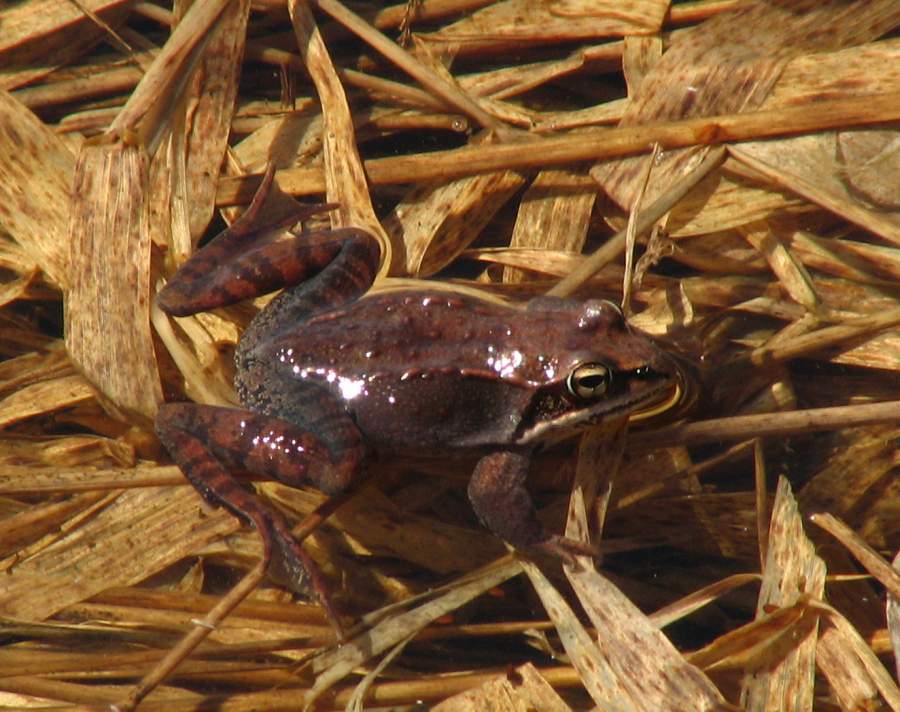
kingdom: Animalia
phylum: Chordata
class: Amphibia
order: Anura
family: Ranidae
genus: Lithobates
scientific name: Lithobates sylvaticus
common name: Wood frog
